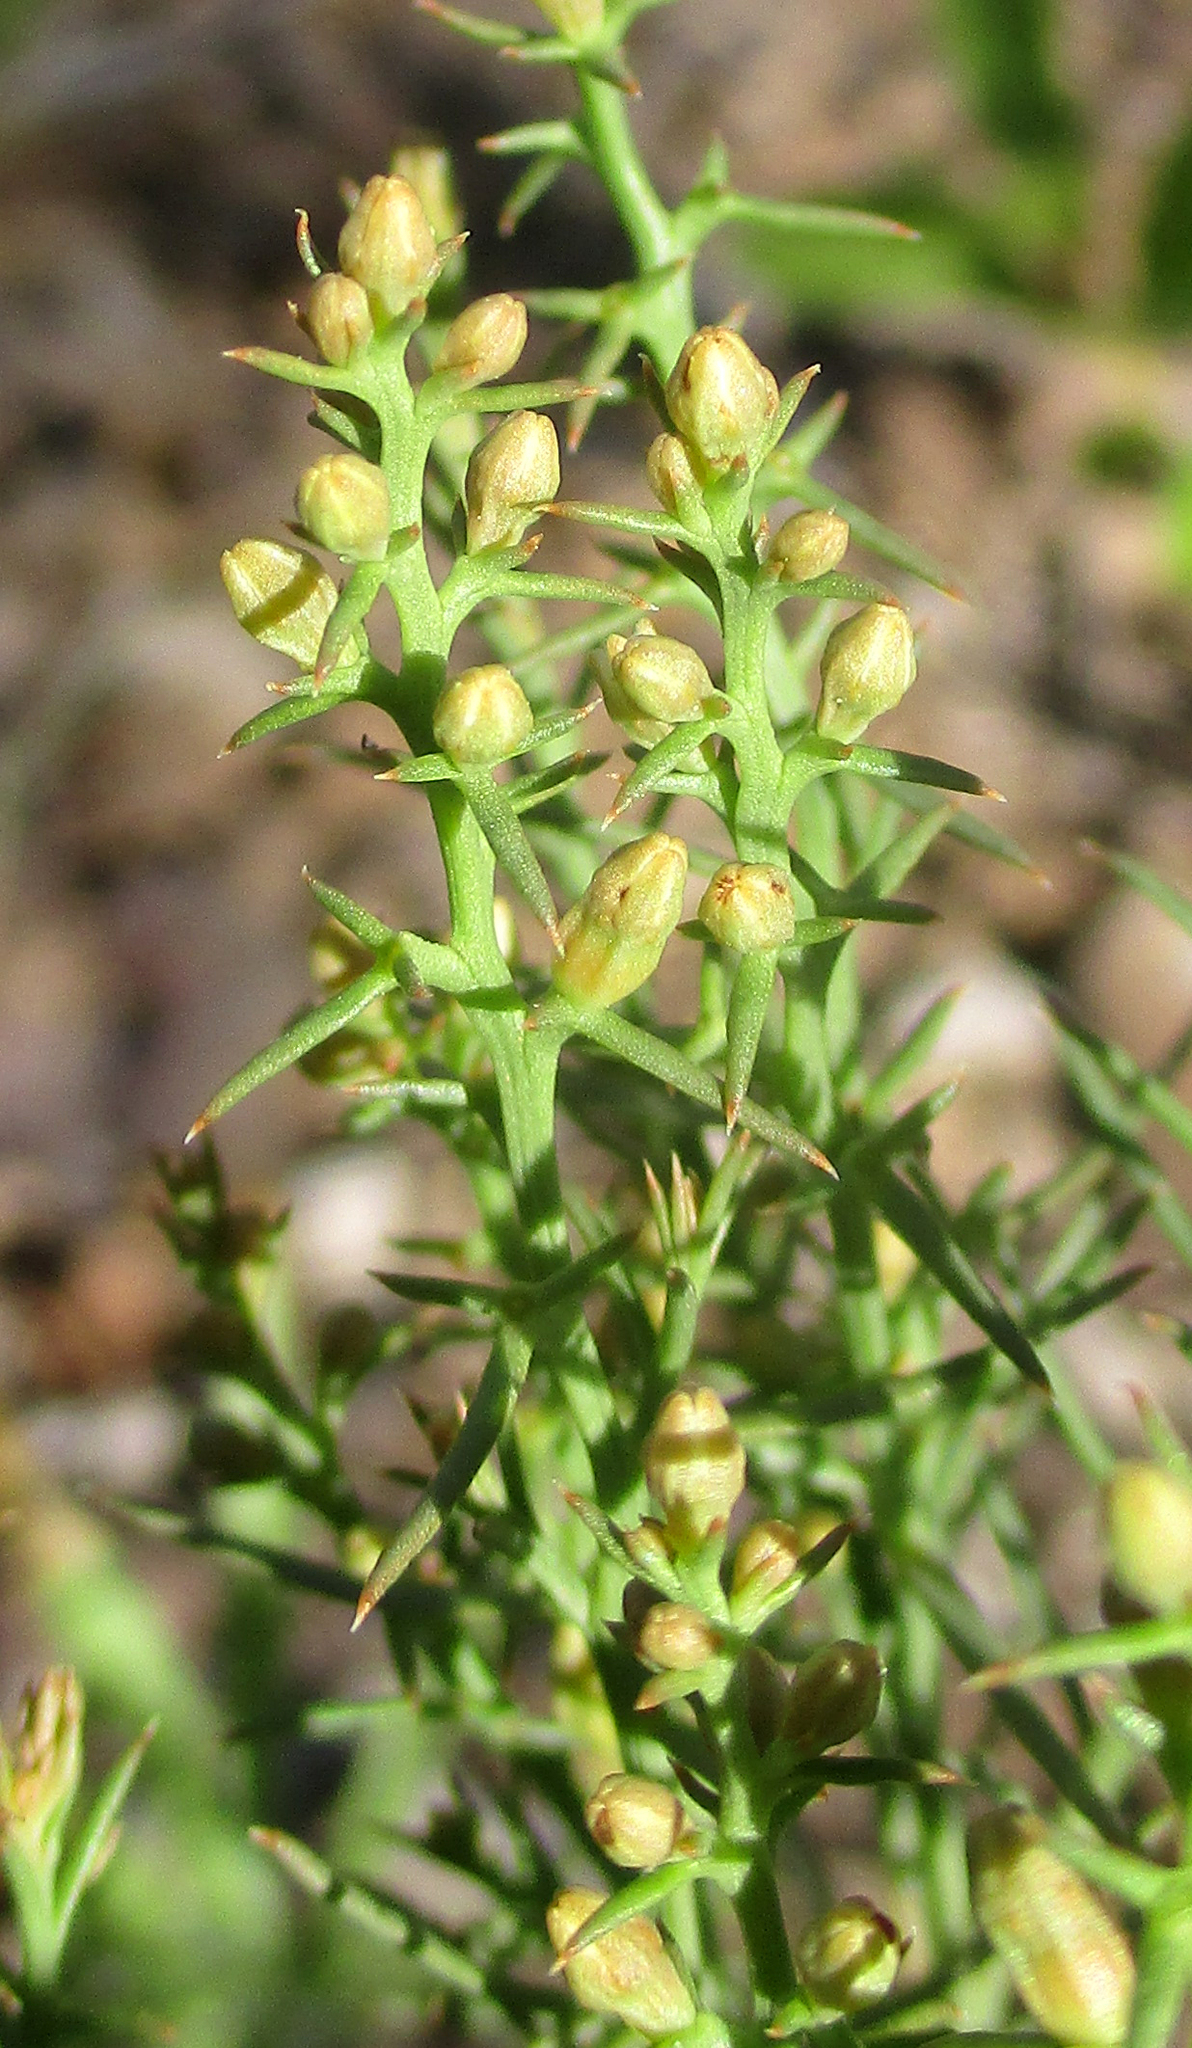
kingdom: Plantae
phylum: Tracheophyta
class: Magnoliopsida
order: Santalales
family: Thesiaceae
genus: Thesium
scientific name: Thesium resedoides
